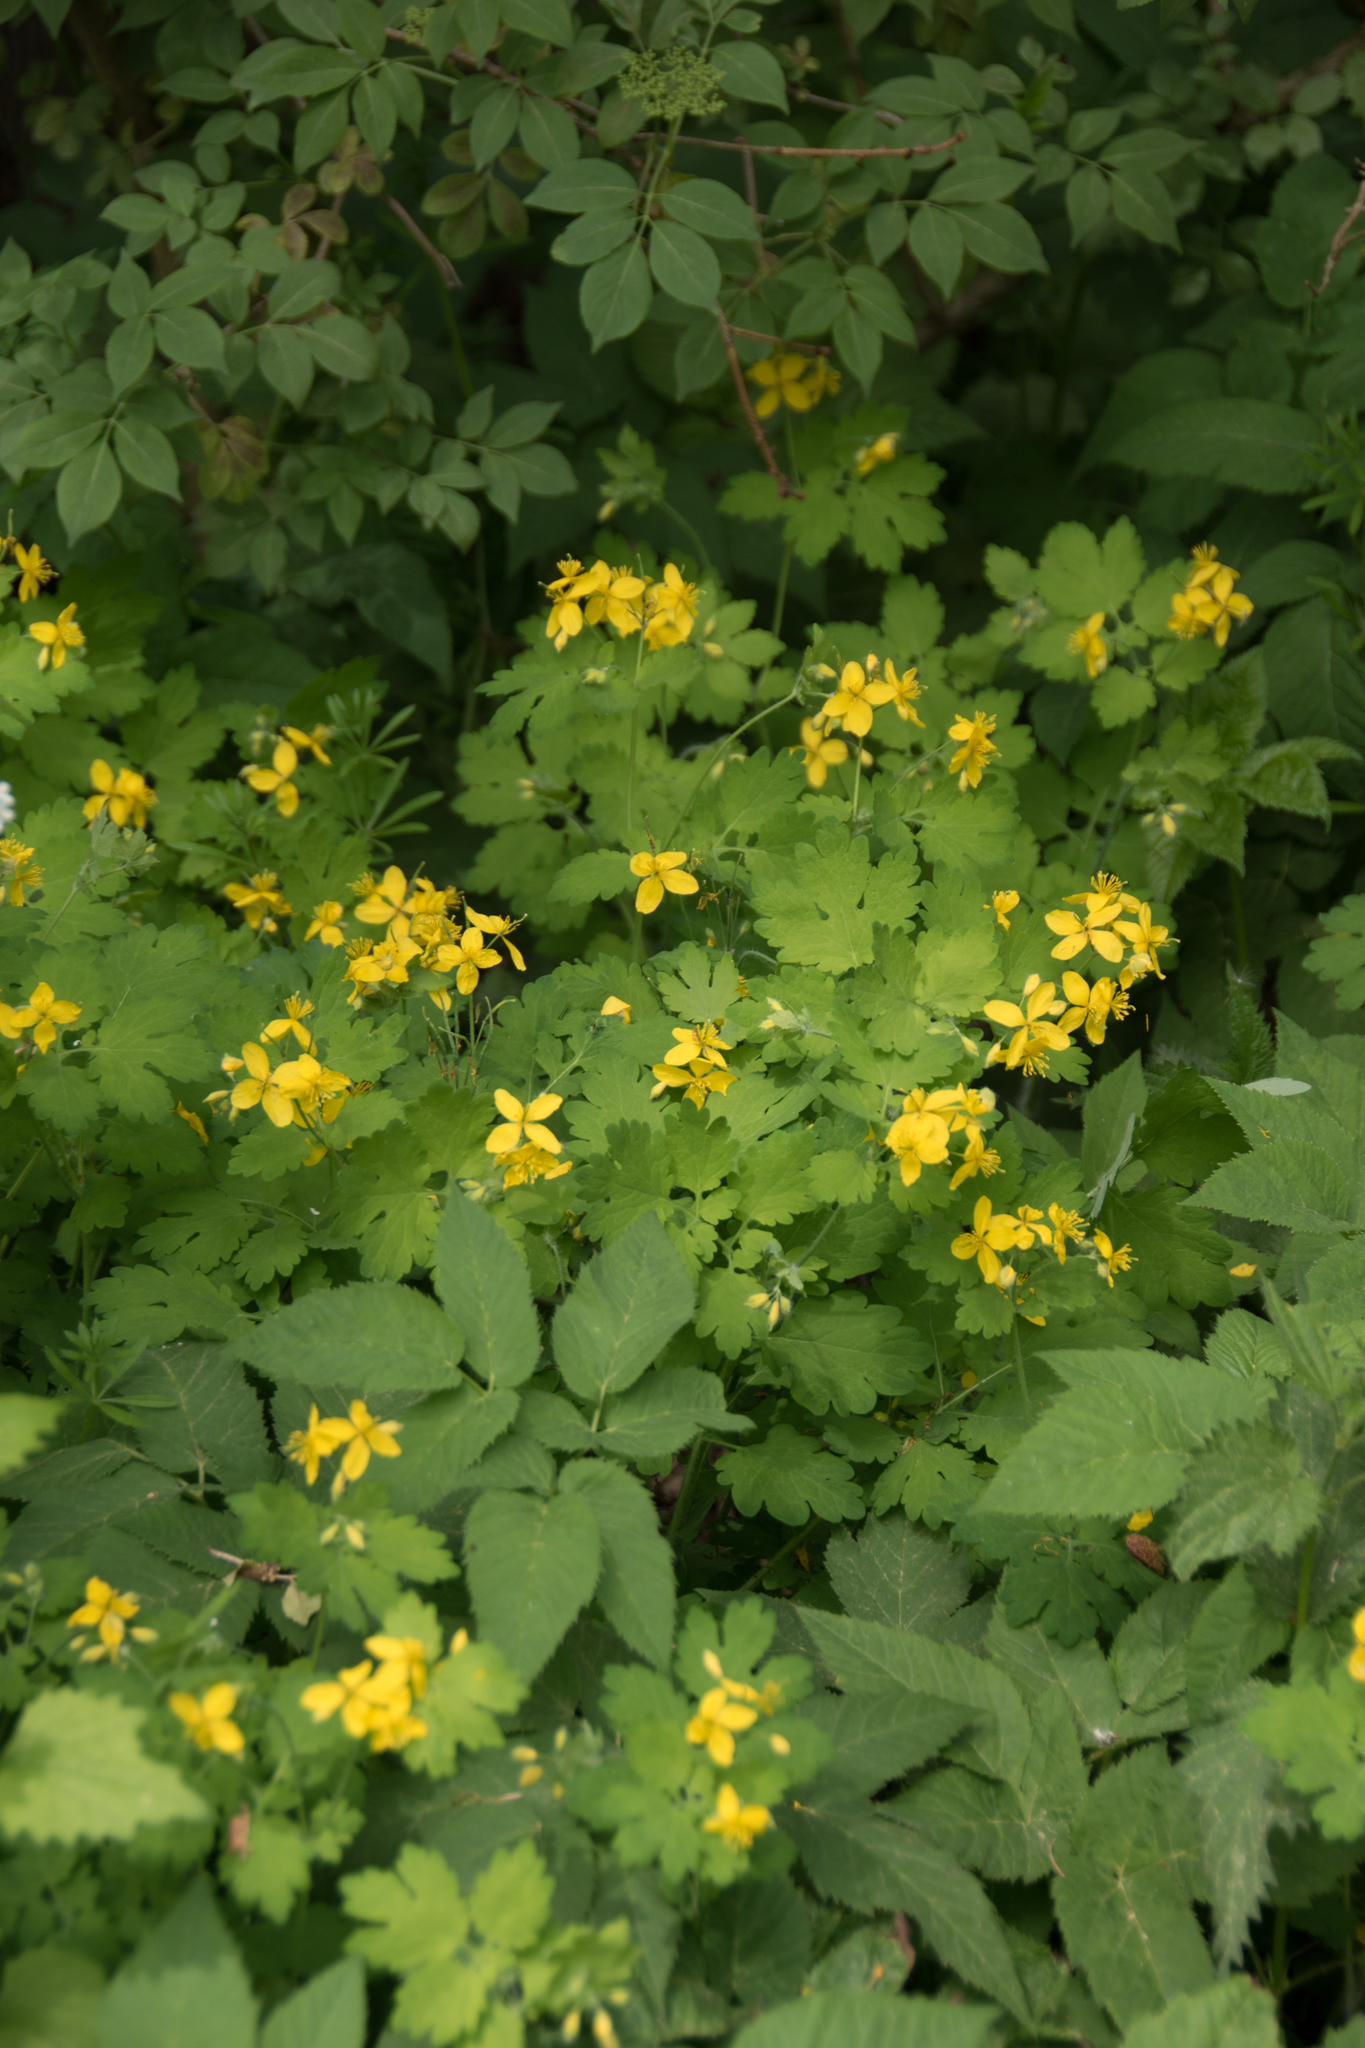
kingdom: Plantae
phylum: Tracheophyta
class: Magnoliopsida
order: Ranunculales
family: Papaveraceae
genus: Chelidonium
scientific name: Chelidonium majus
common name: Greater celandine
